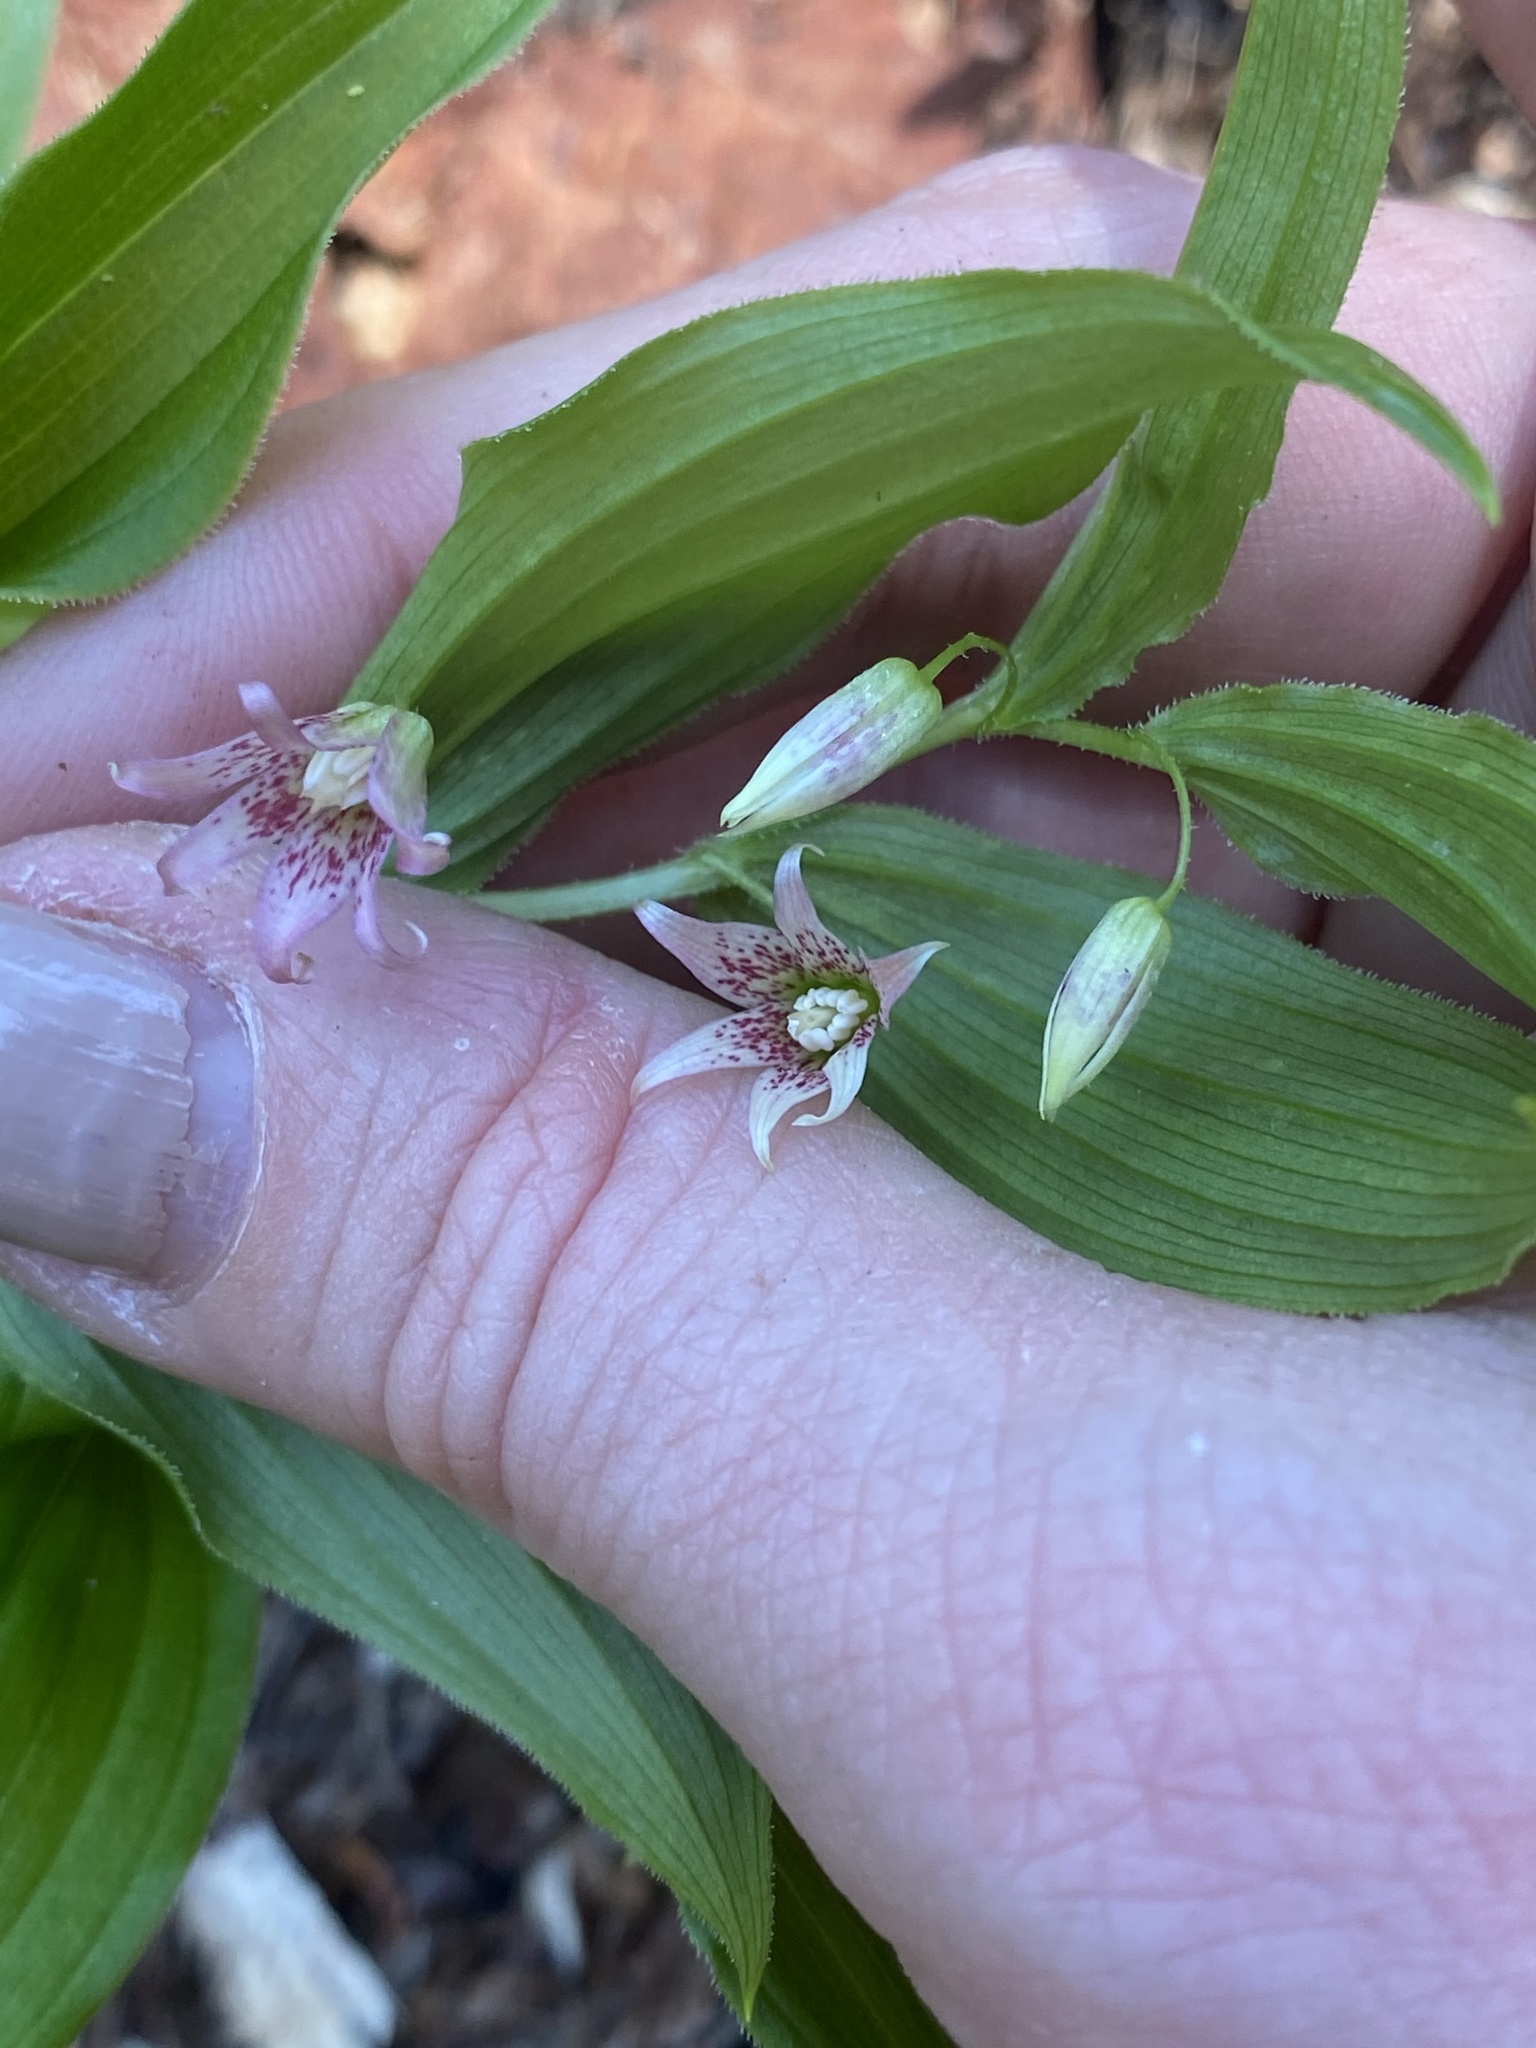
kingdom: Plantae
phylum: Tracheophyta
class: Liliopsida
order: Liliales
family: Liliaceae
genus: Streptopus
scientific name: Streptopus lanceolatus
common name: Rose mandarin
